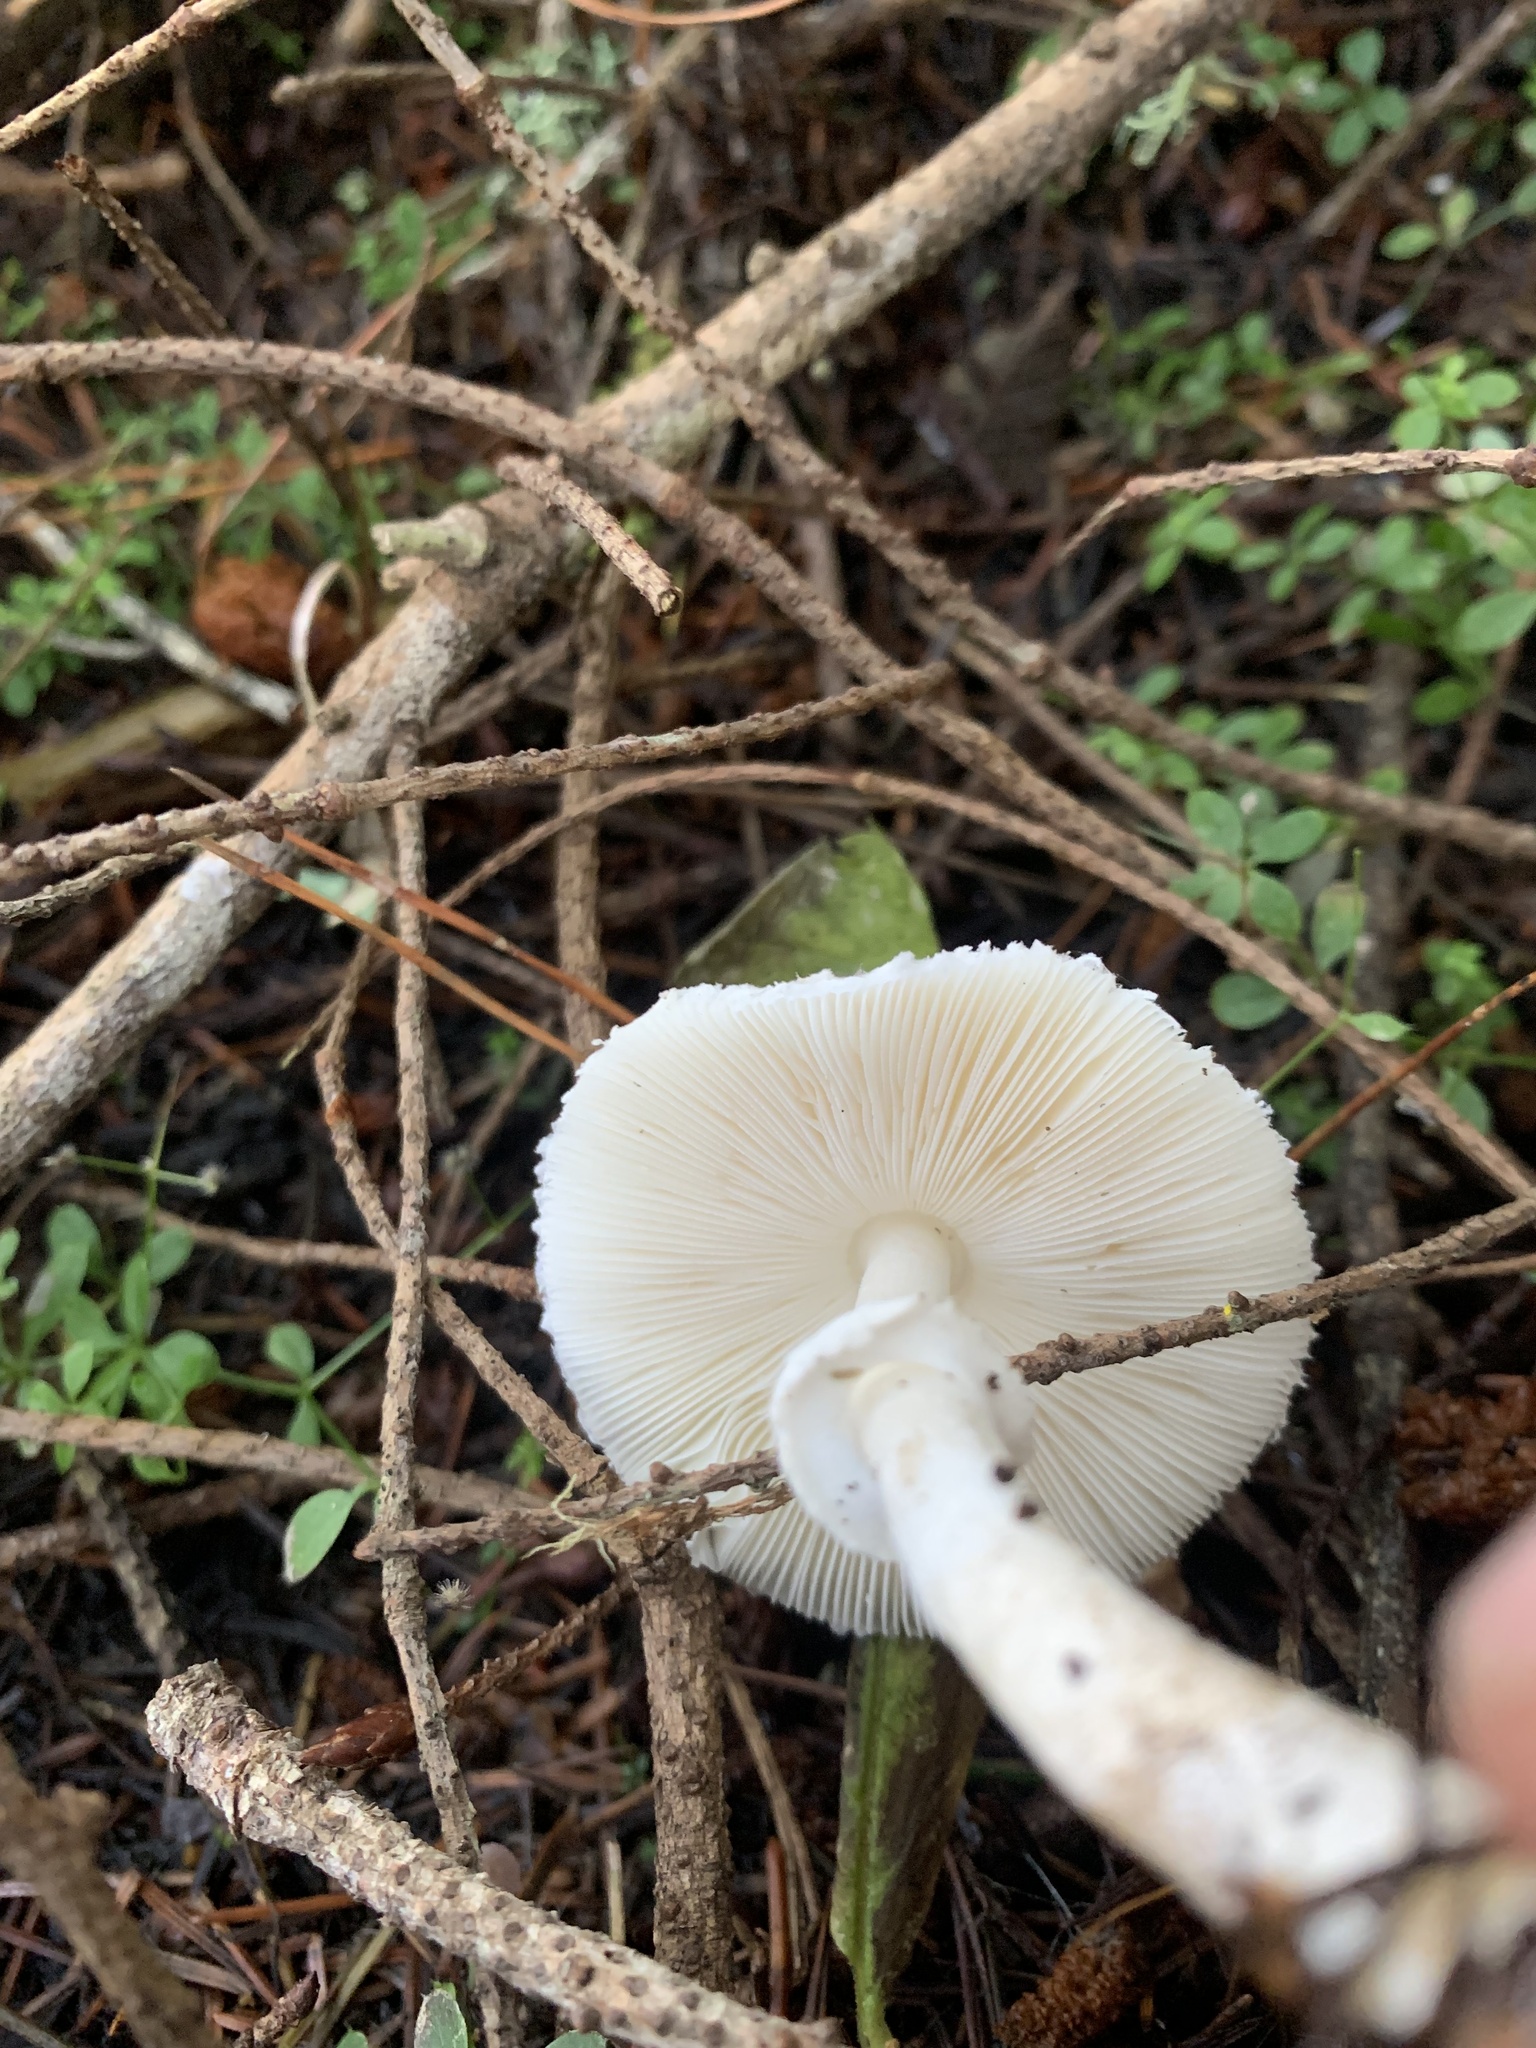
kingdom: Fungi
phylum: Basidiomycota
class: Agaricomycetes
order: Agaricales
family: Agaricaceae
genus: Lepiota
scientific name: Lepiota rubrotinctoides
